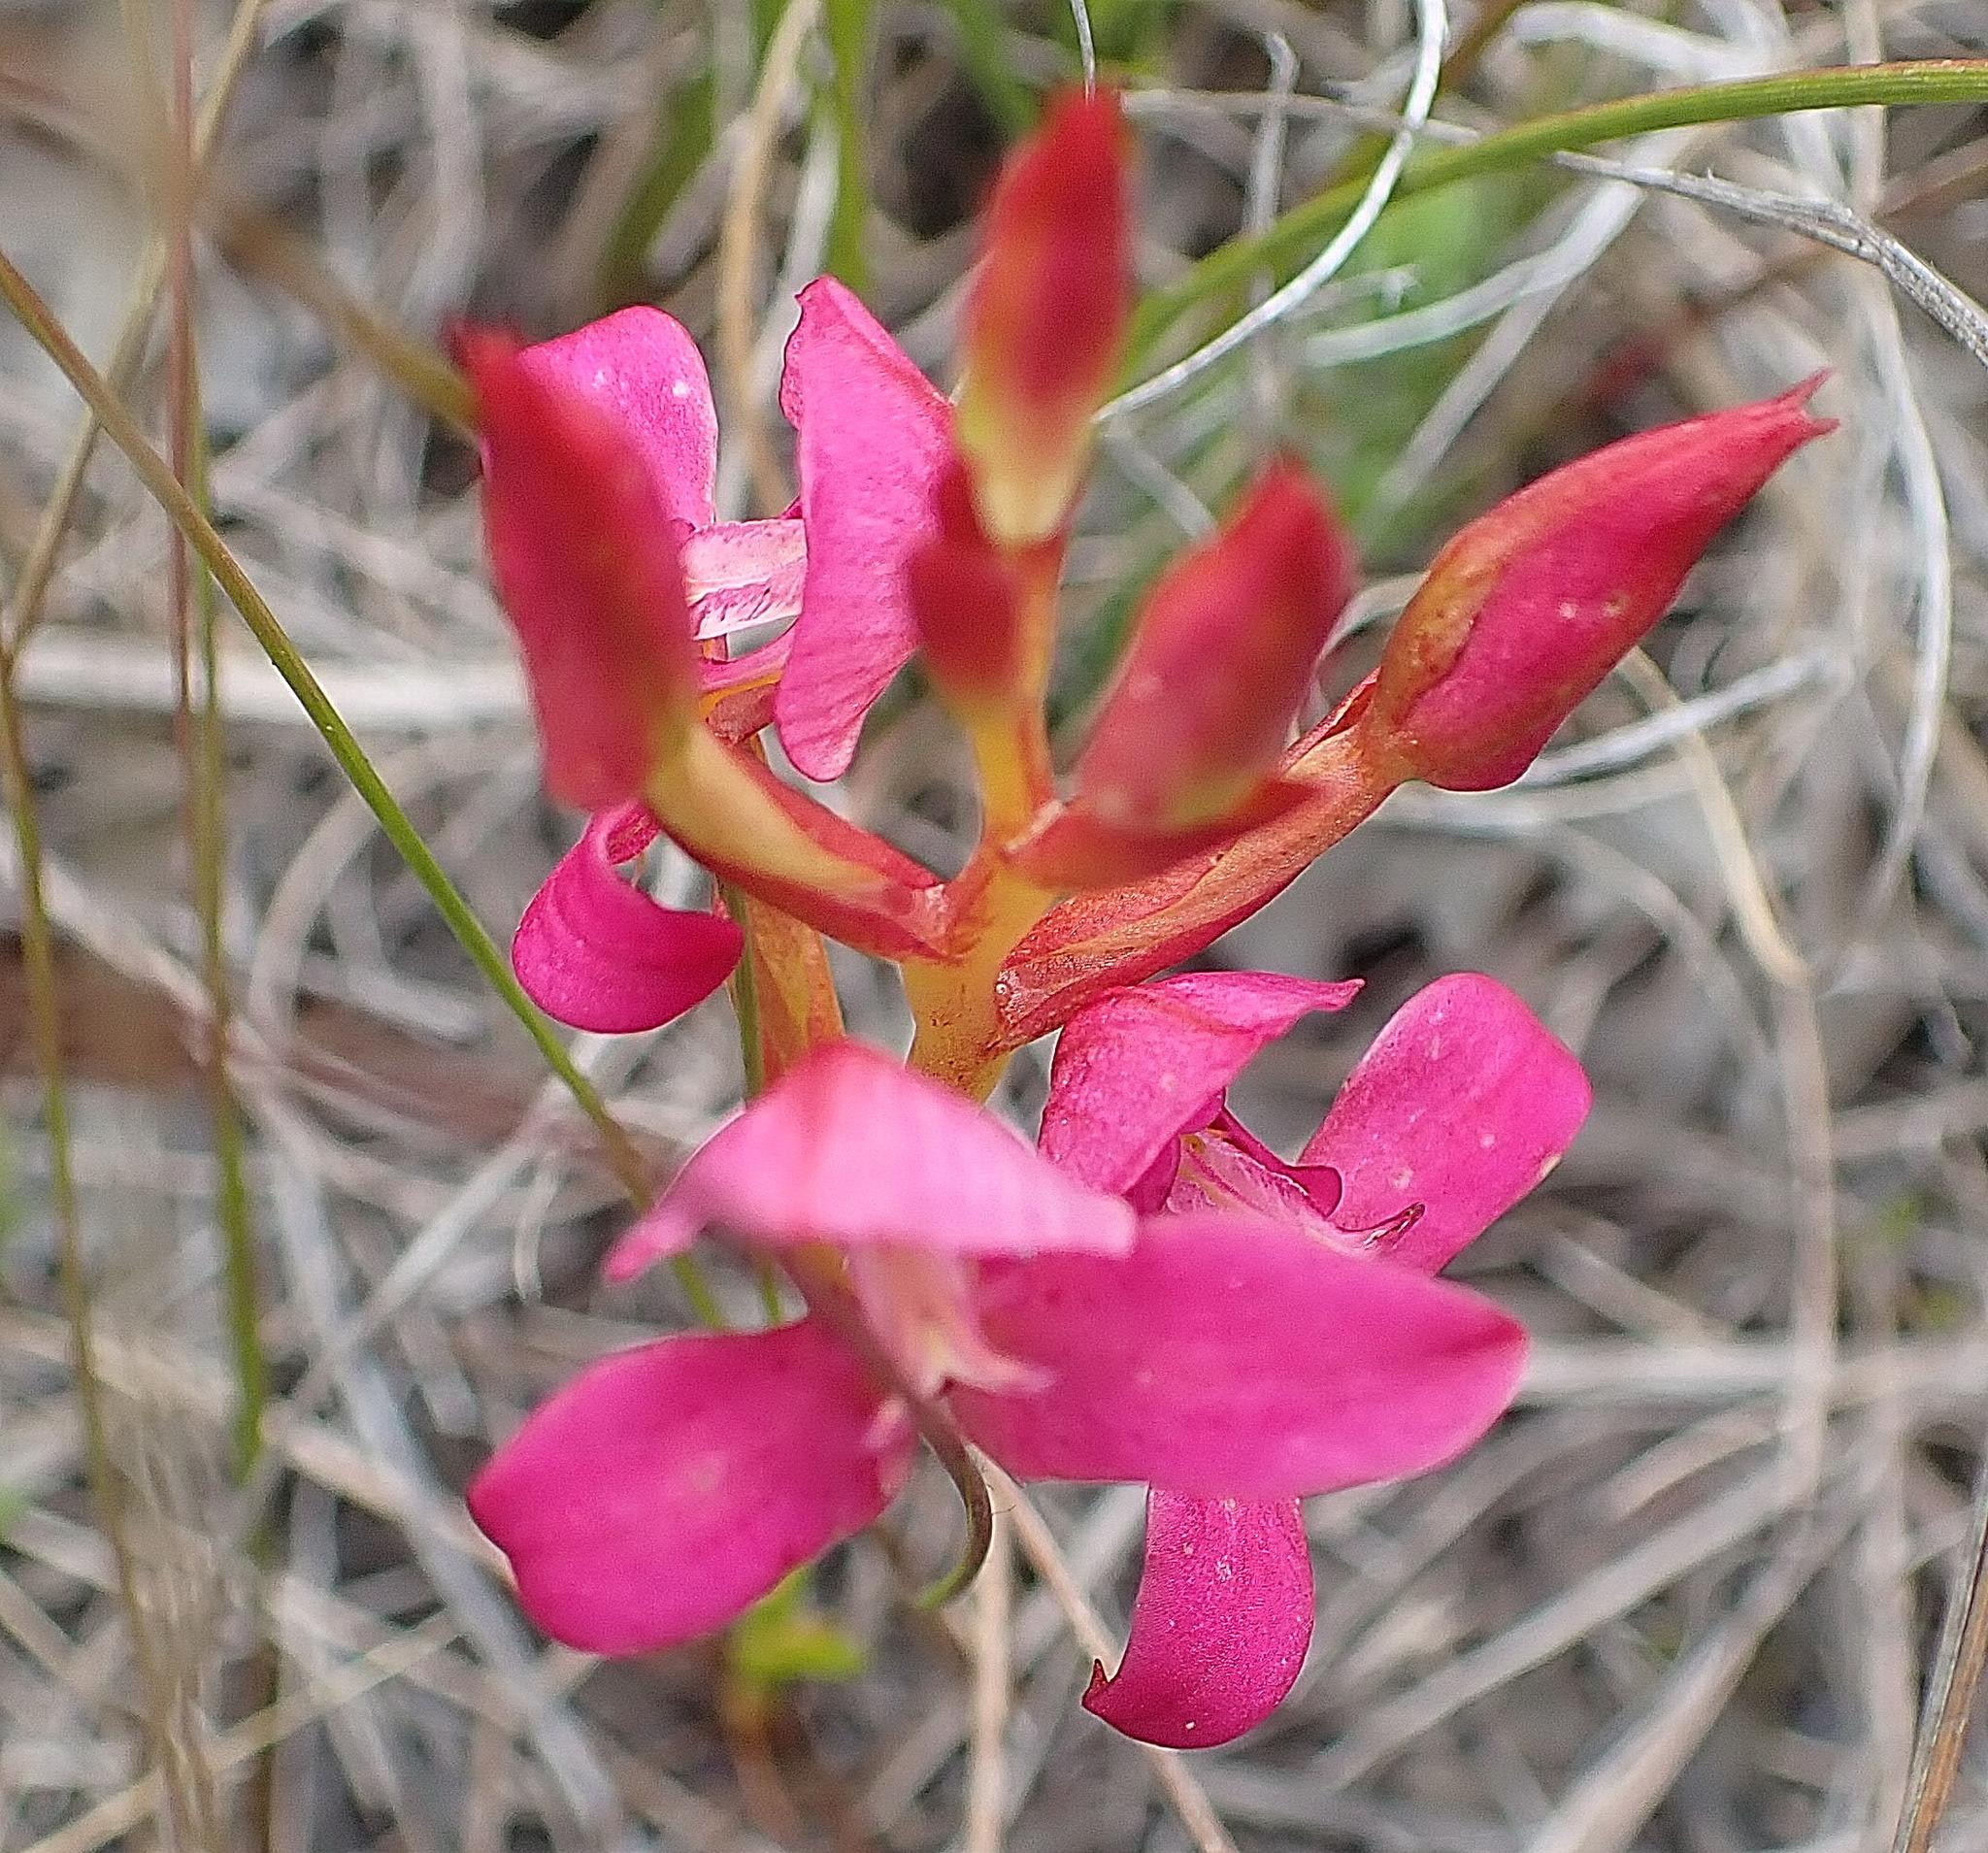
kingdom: Plantae
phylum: Tracheophyta
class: Liliopsida
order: Asparagales
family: Orchidaceae
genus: Disa
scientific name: Disa filicornis
